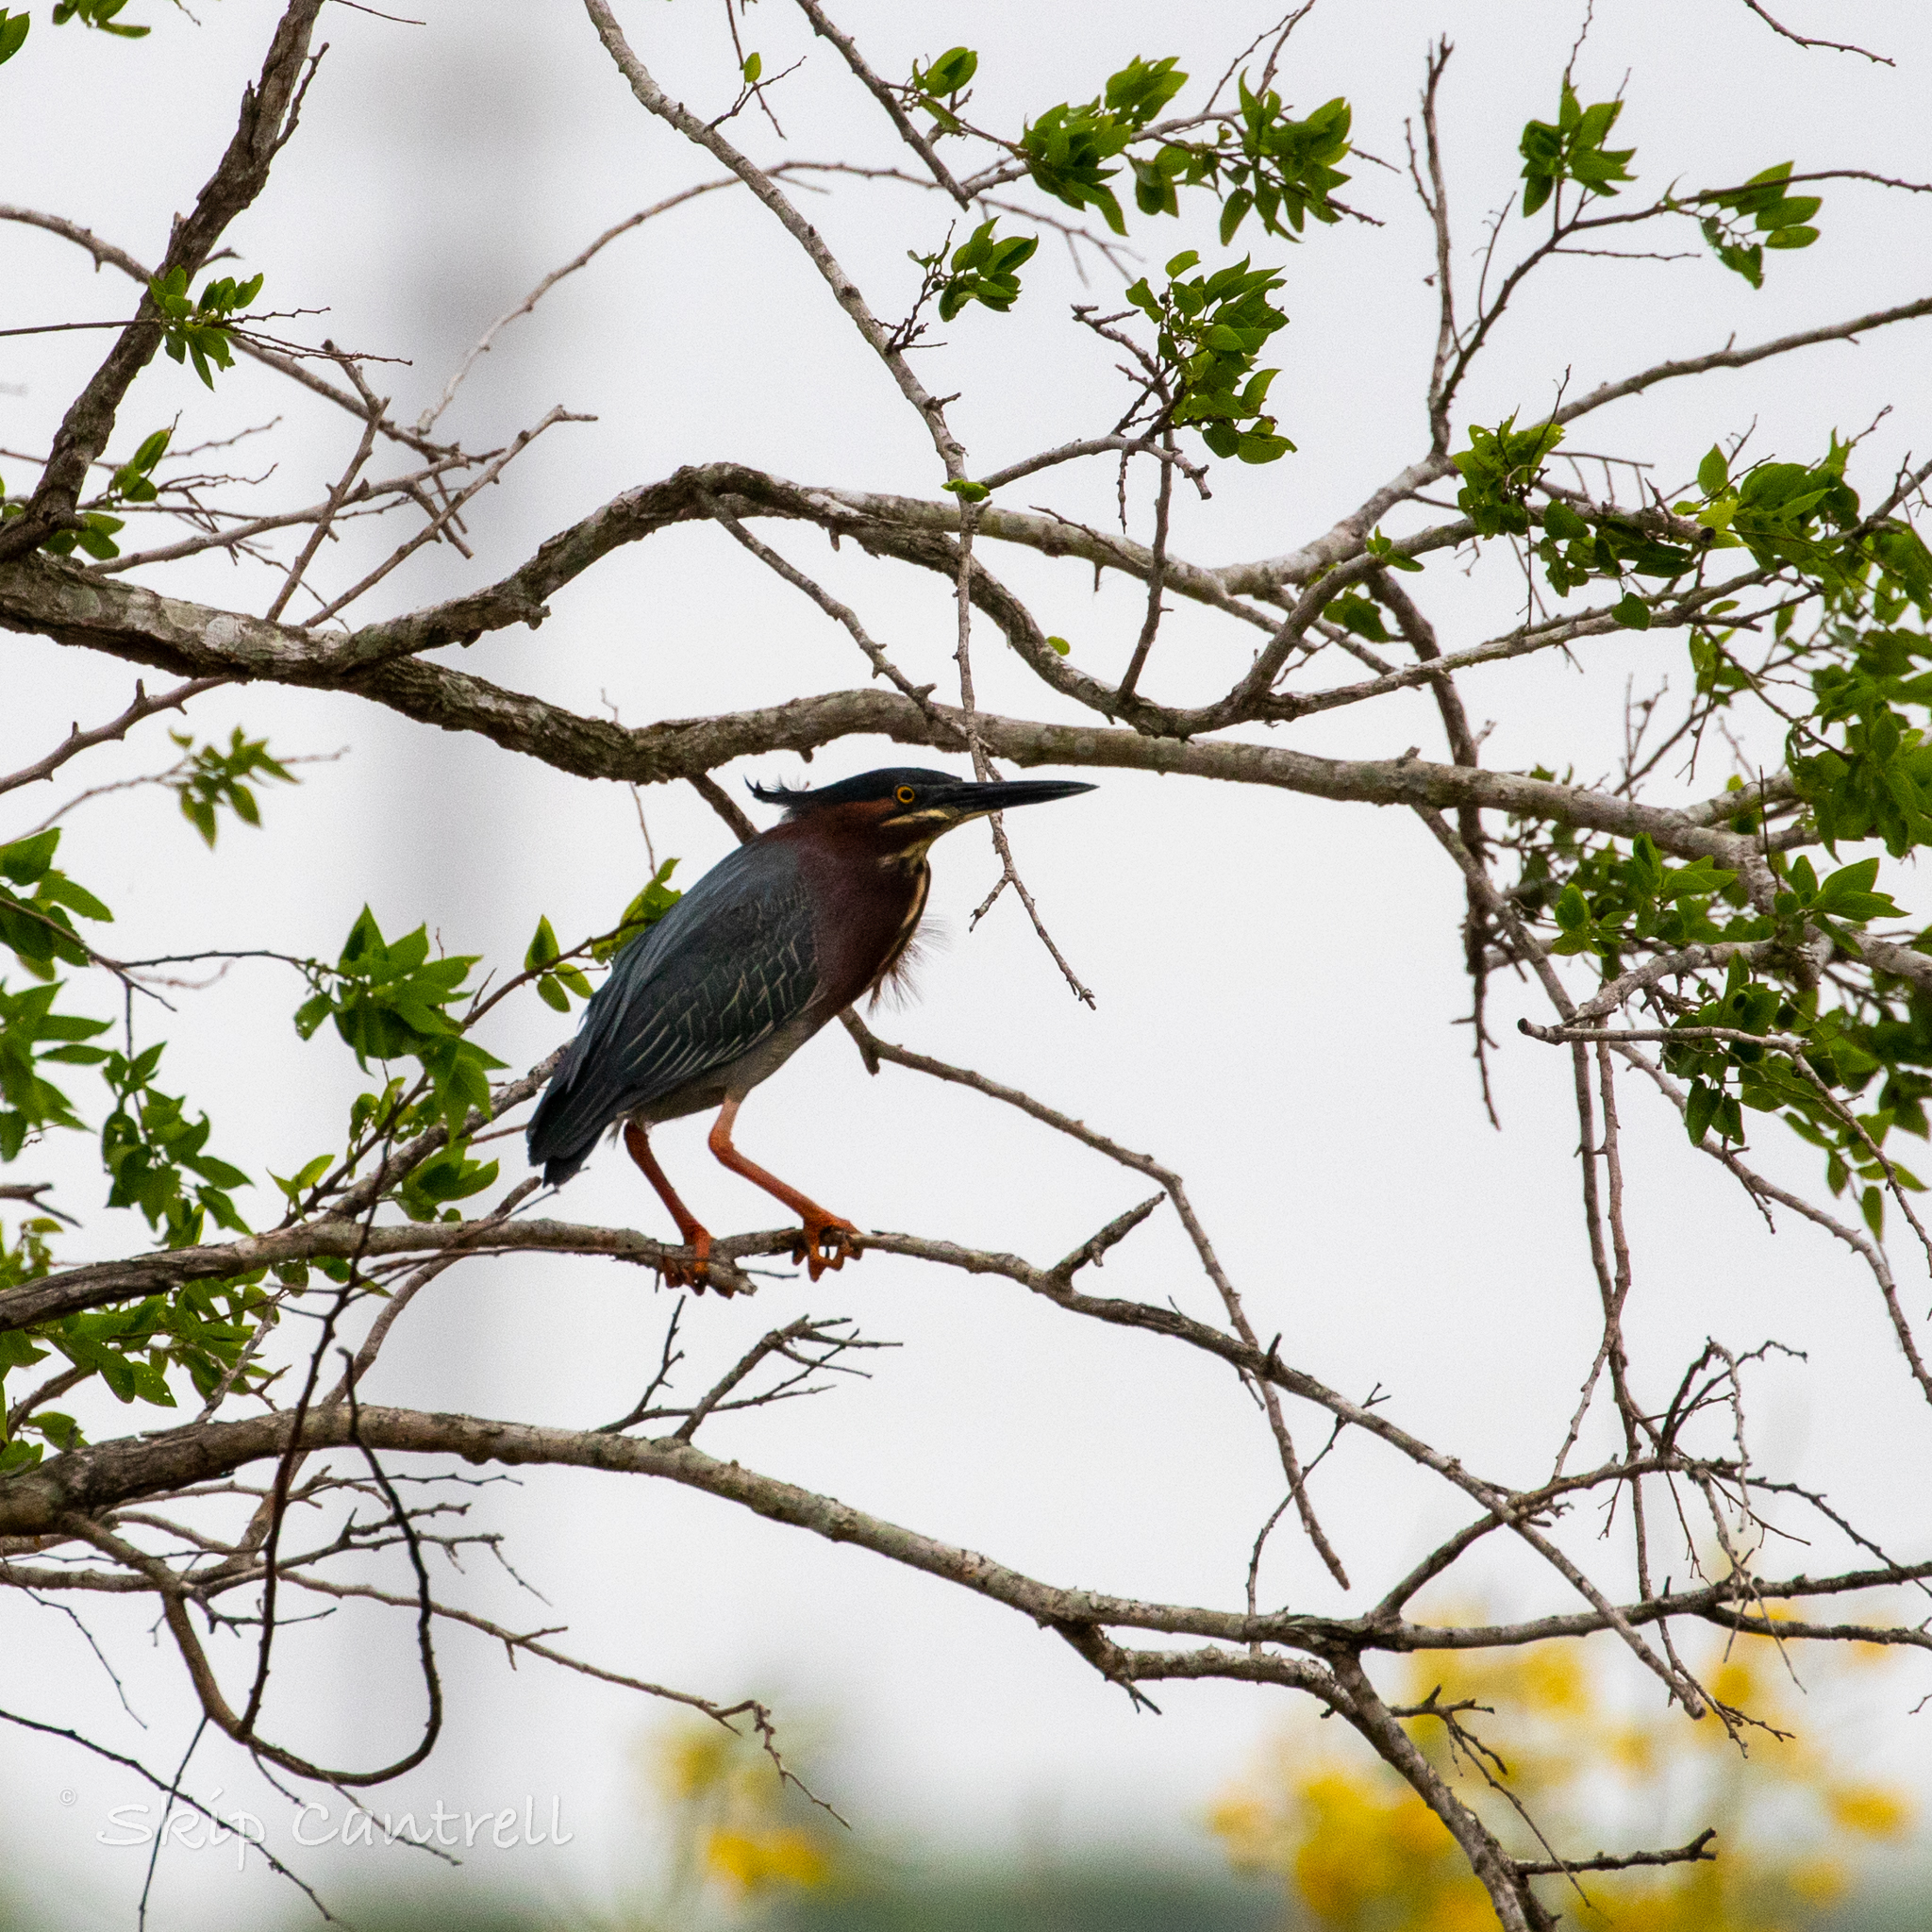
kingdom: Animalia
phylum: Chordata
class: Aves
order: Pelecaniformes
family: Ardeidae
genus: Butorides
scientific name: Butorides virescens
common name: Green heron
